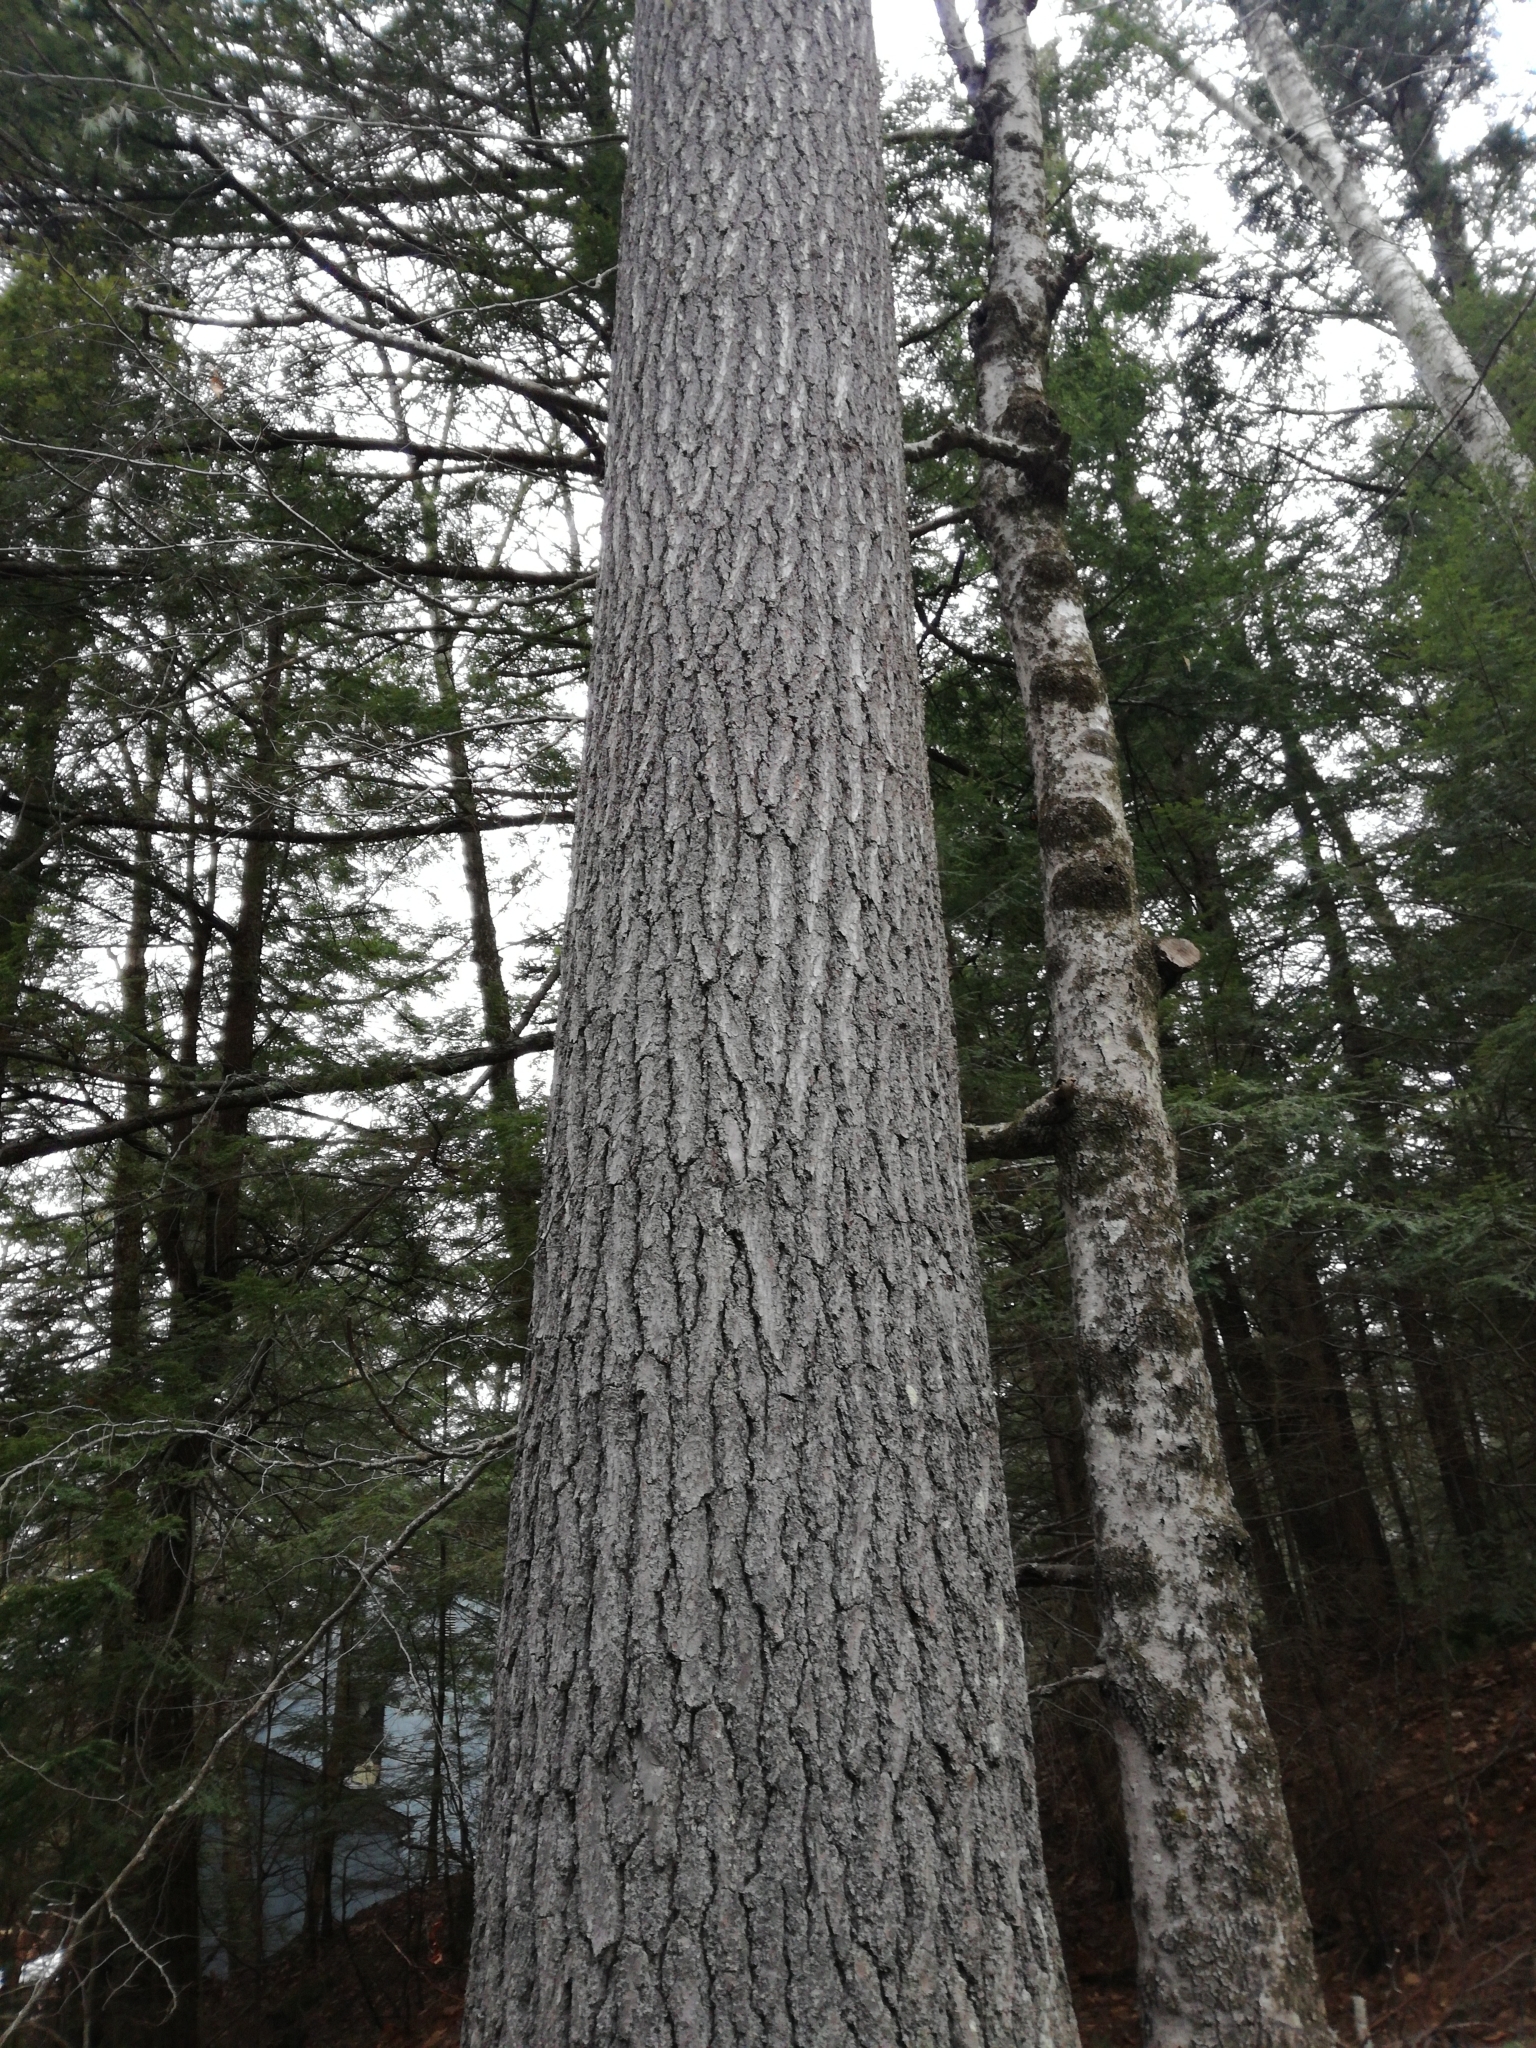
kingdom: Plantae
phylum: Tracheophyta
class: Pinopsida
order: Pinales
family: Pinaceae
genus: Pinus
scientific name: Pinus strobus
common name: Weymouth pine
